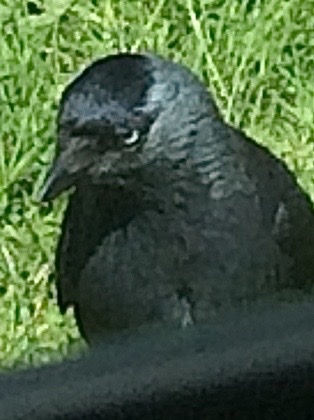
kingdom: Animalia
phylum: Chordata
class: Aves
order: Passeriformes
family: Corvidae
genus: Coloeus
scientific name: Coloeus monedula
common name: Western jackdaw
